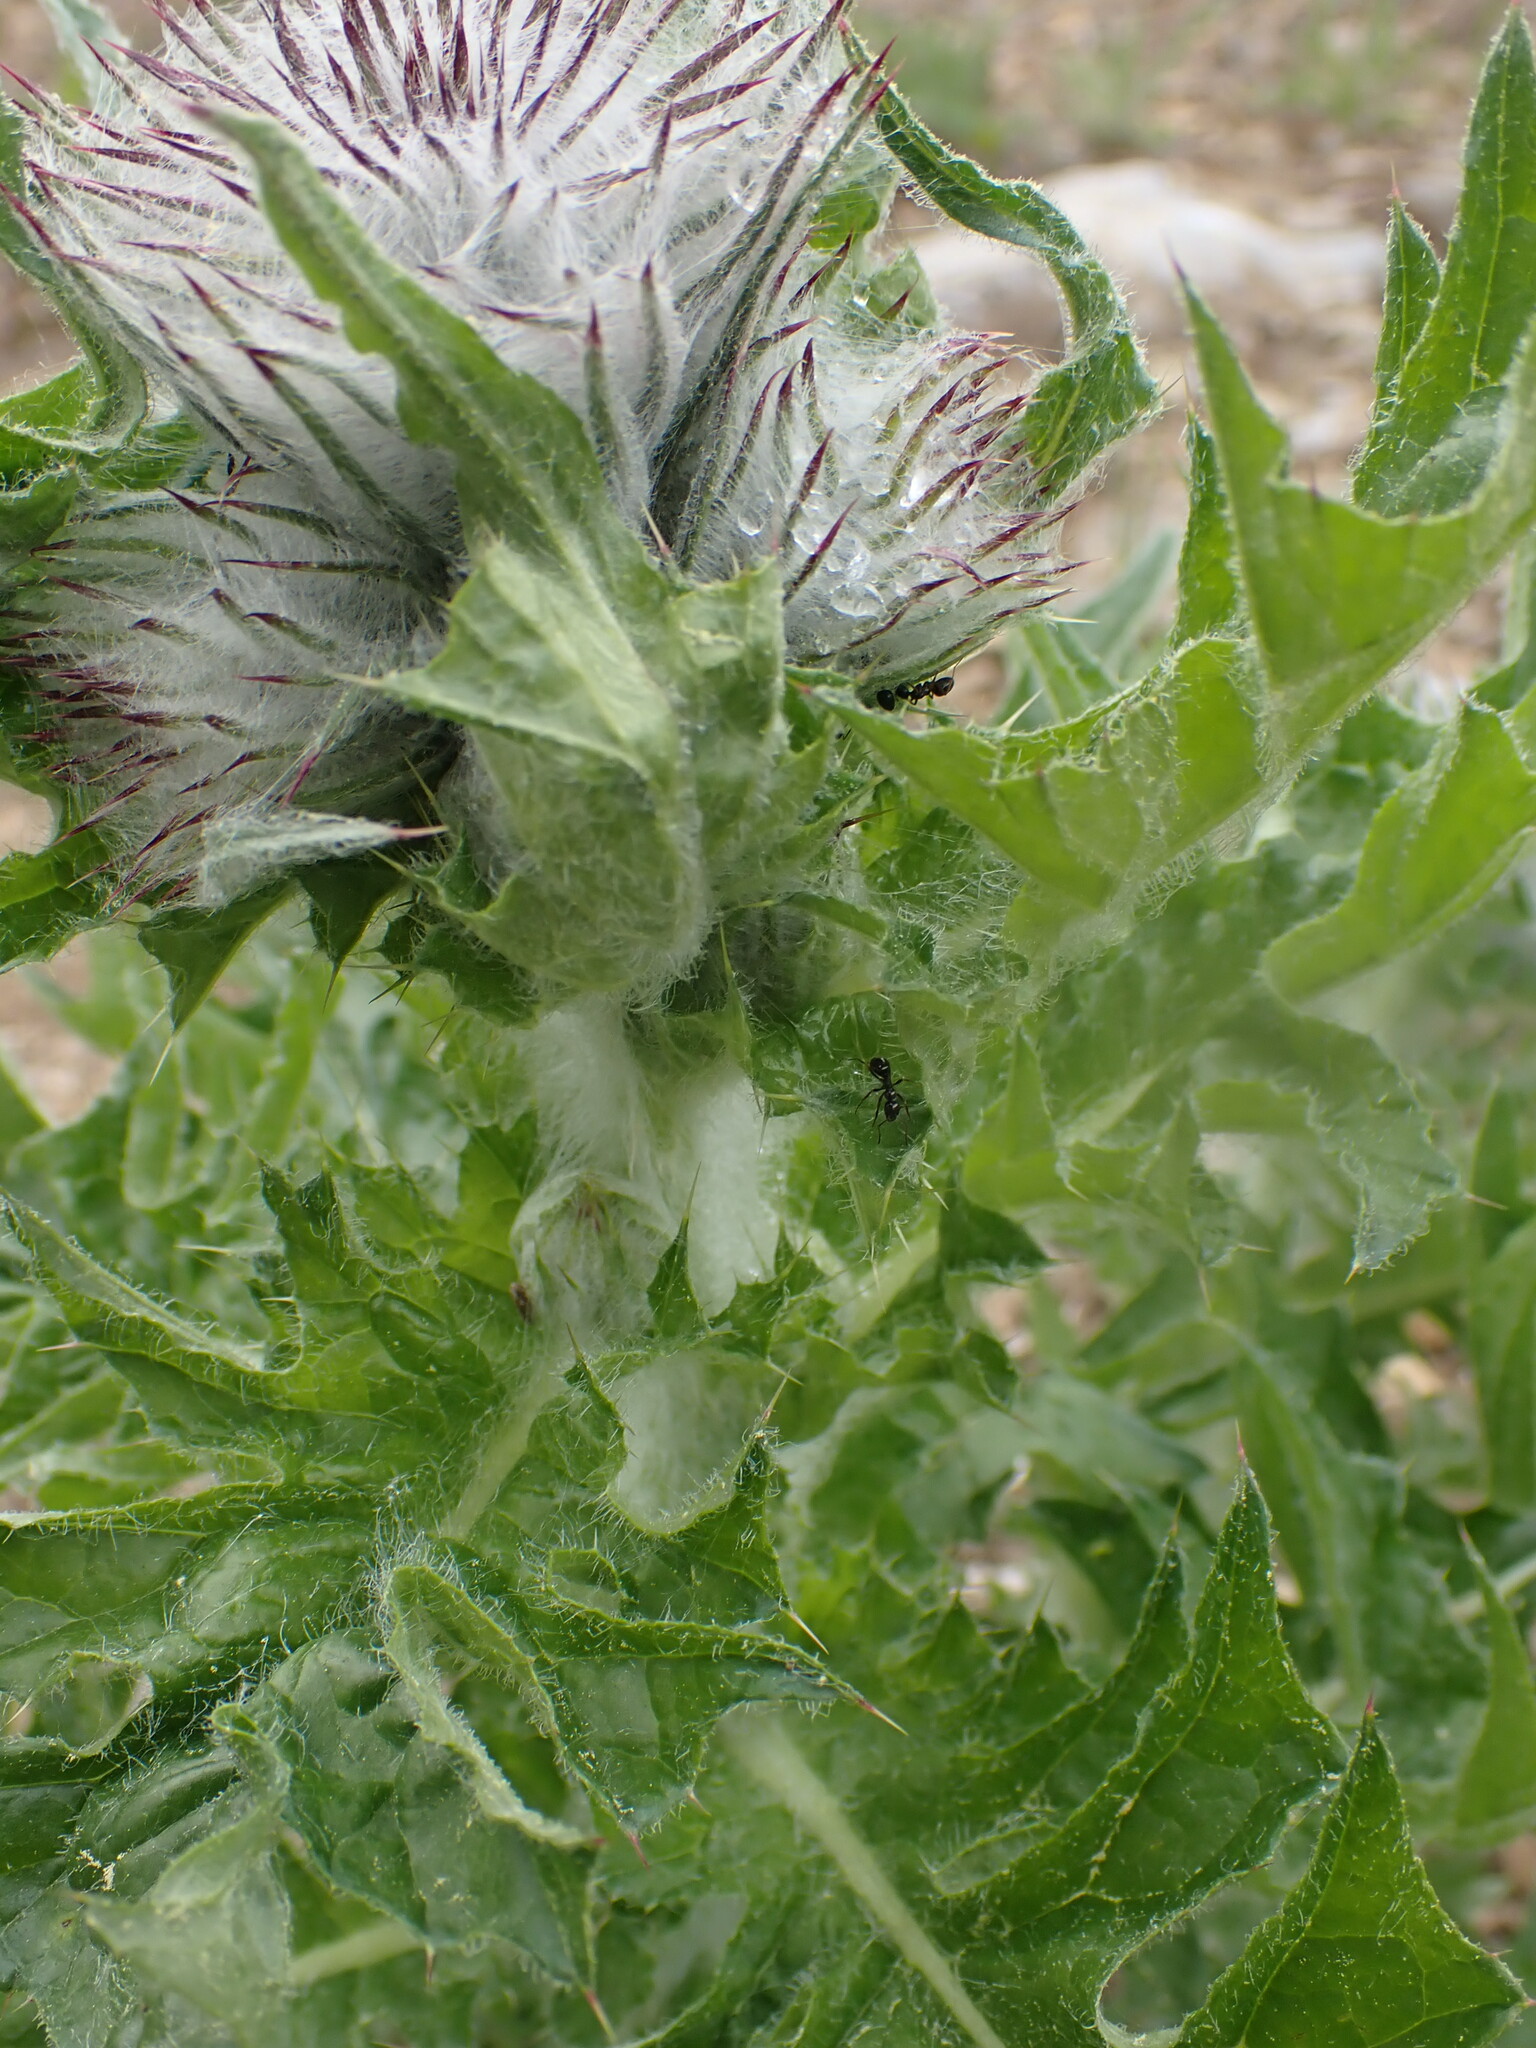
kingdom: Plantae
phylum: Tracheophyta
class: Magnoliopsida
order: Asterales
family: Asteraceae
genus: Cirsium
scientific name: Cirsium edule
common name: Indian thistle
